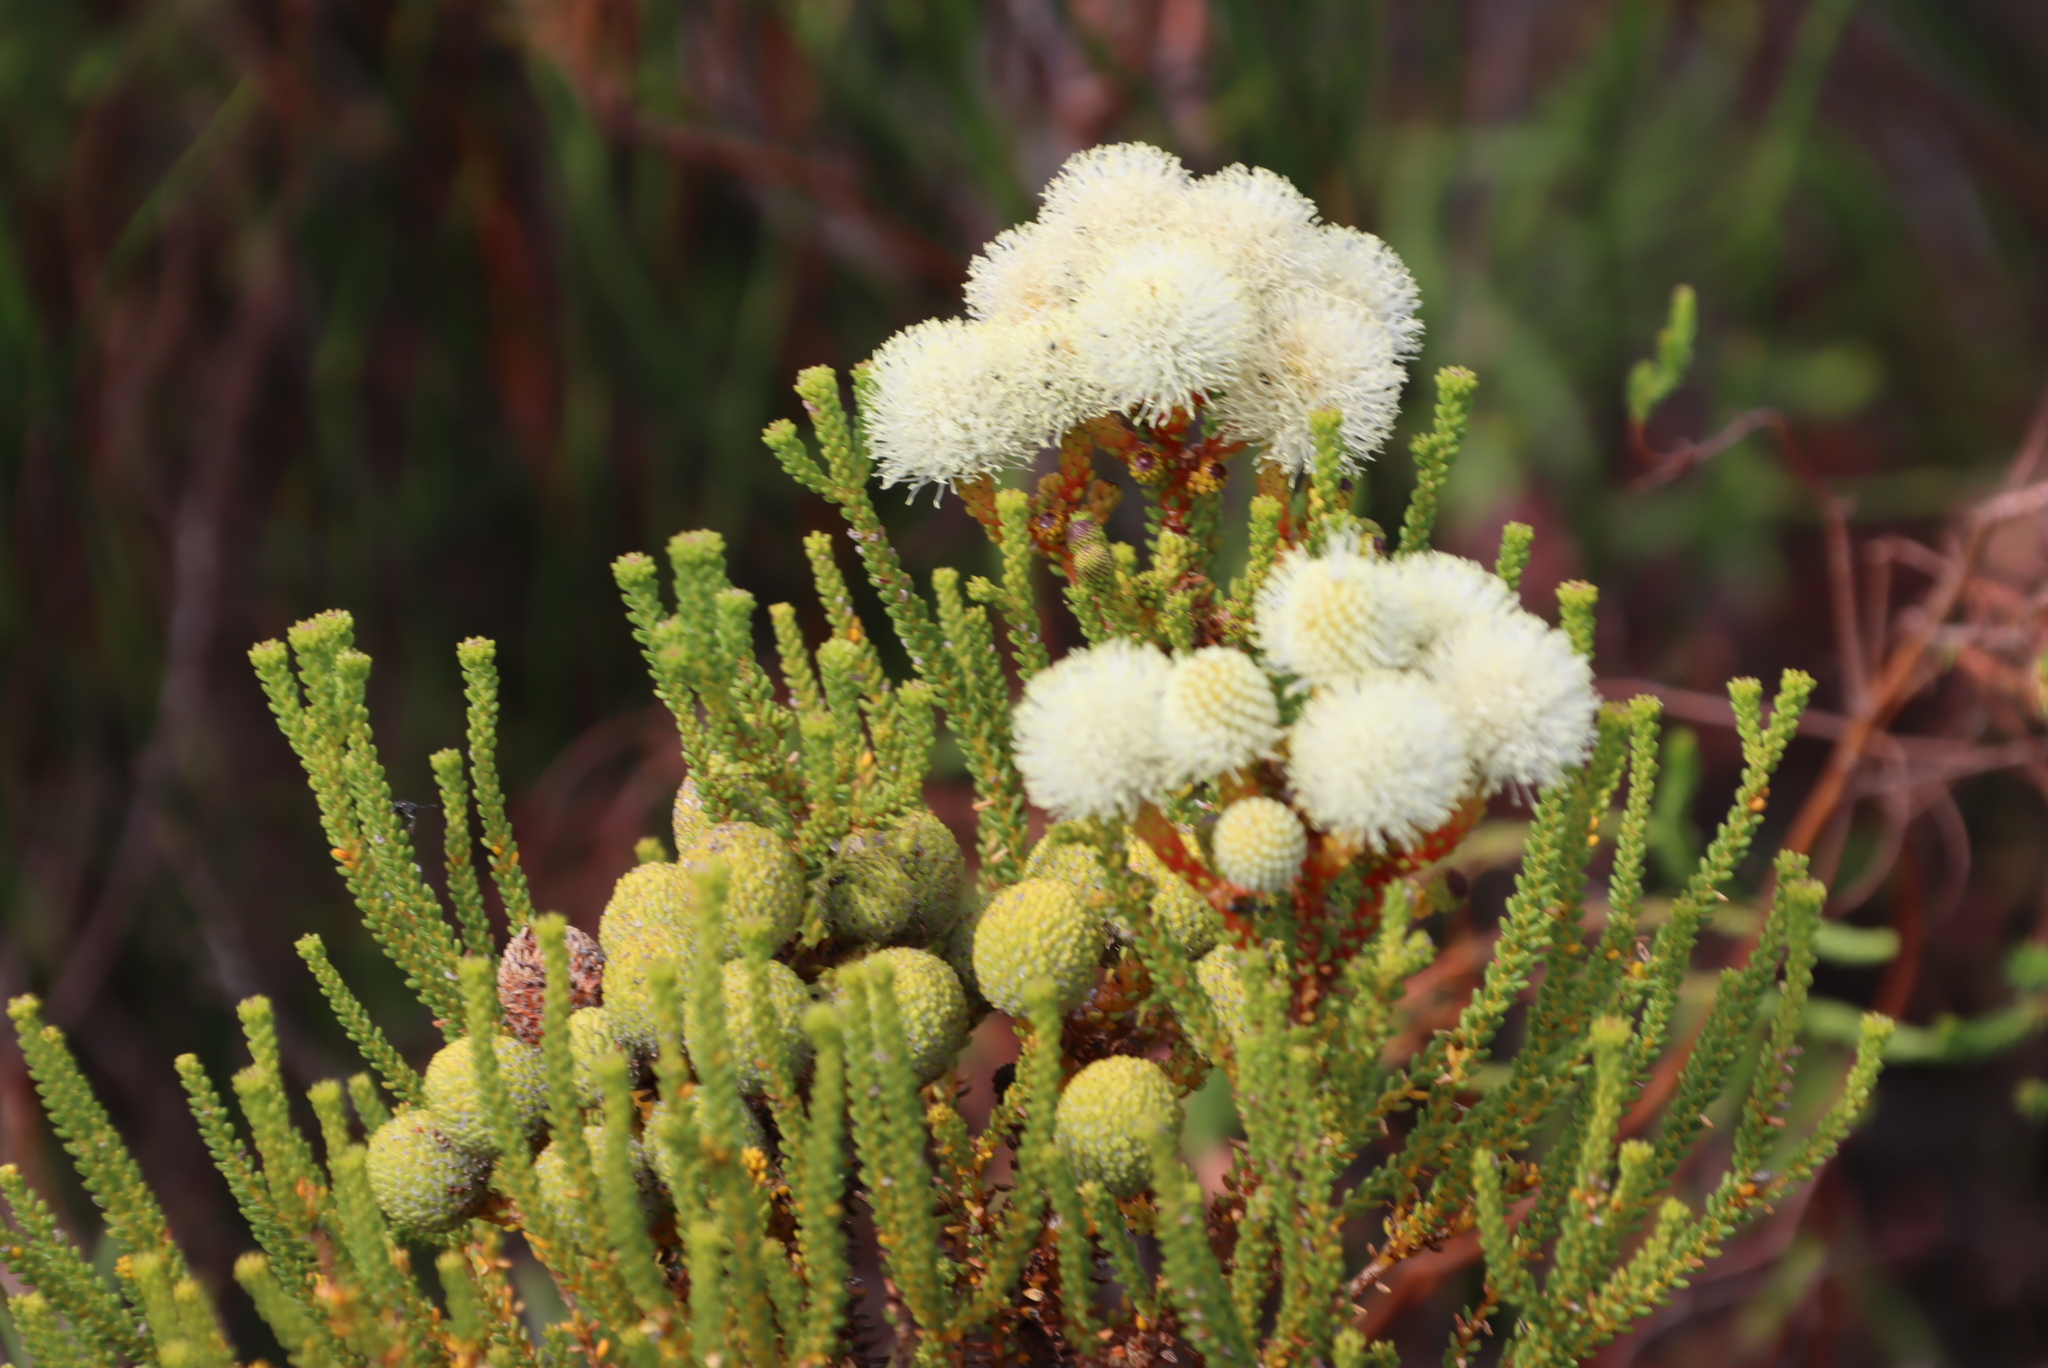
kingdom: Plantae
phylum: Tracheophyta
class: Magnoliopsida
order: Bruniales
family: Bruniaceae
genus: Berzelia
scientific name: Berzelia abrotanoides
